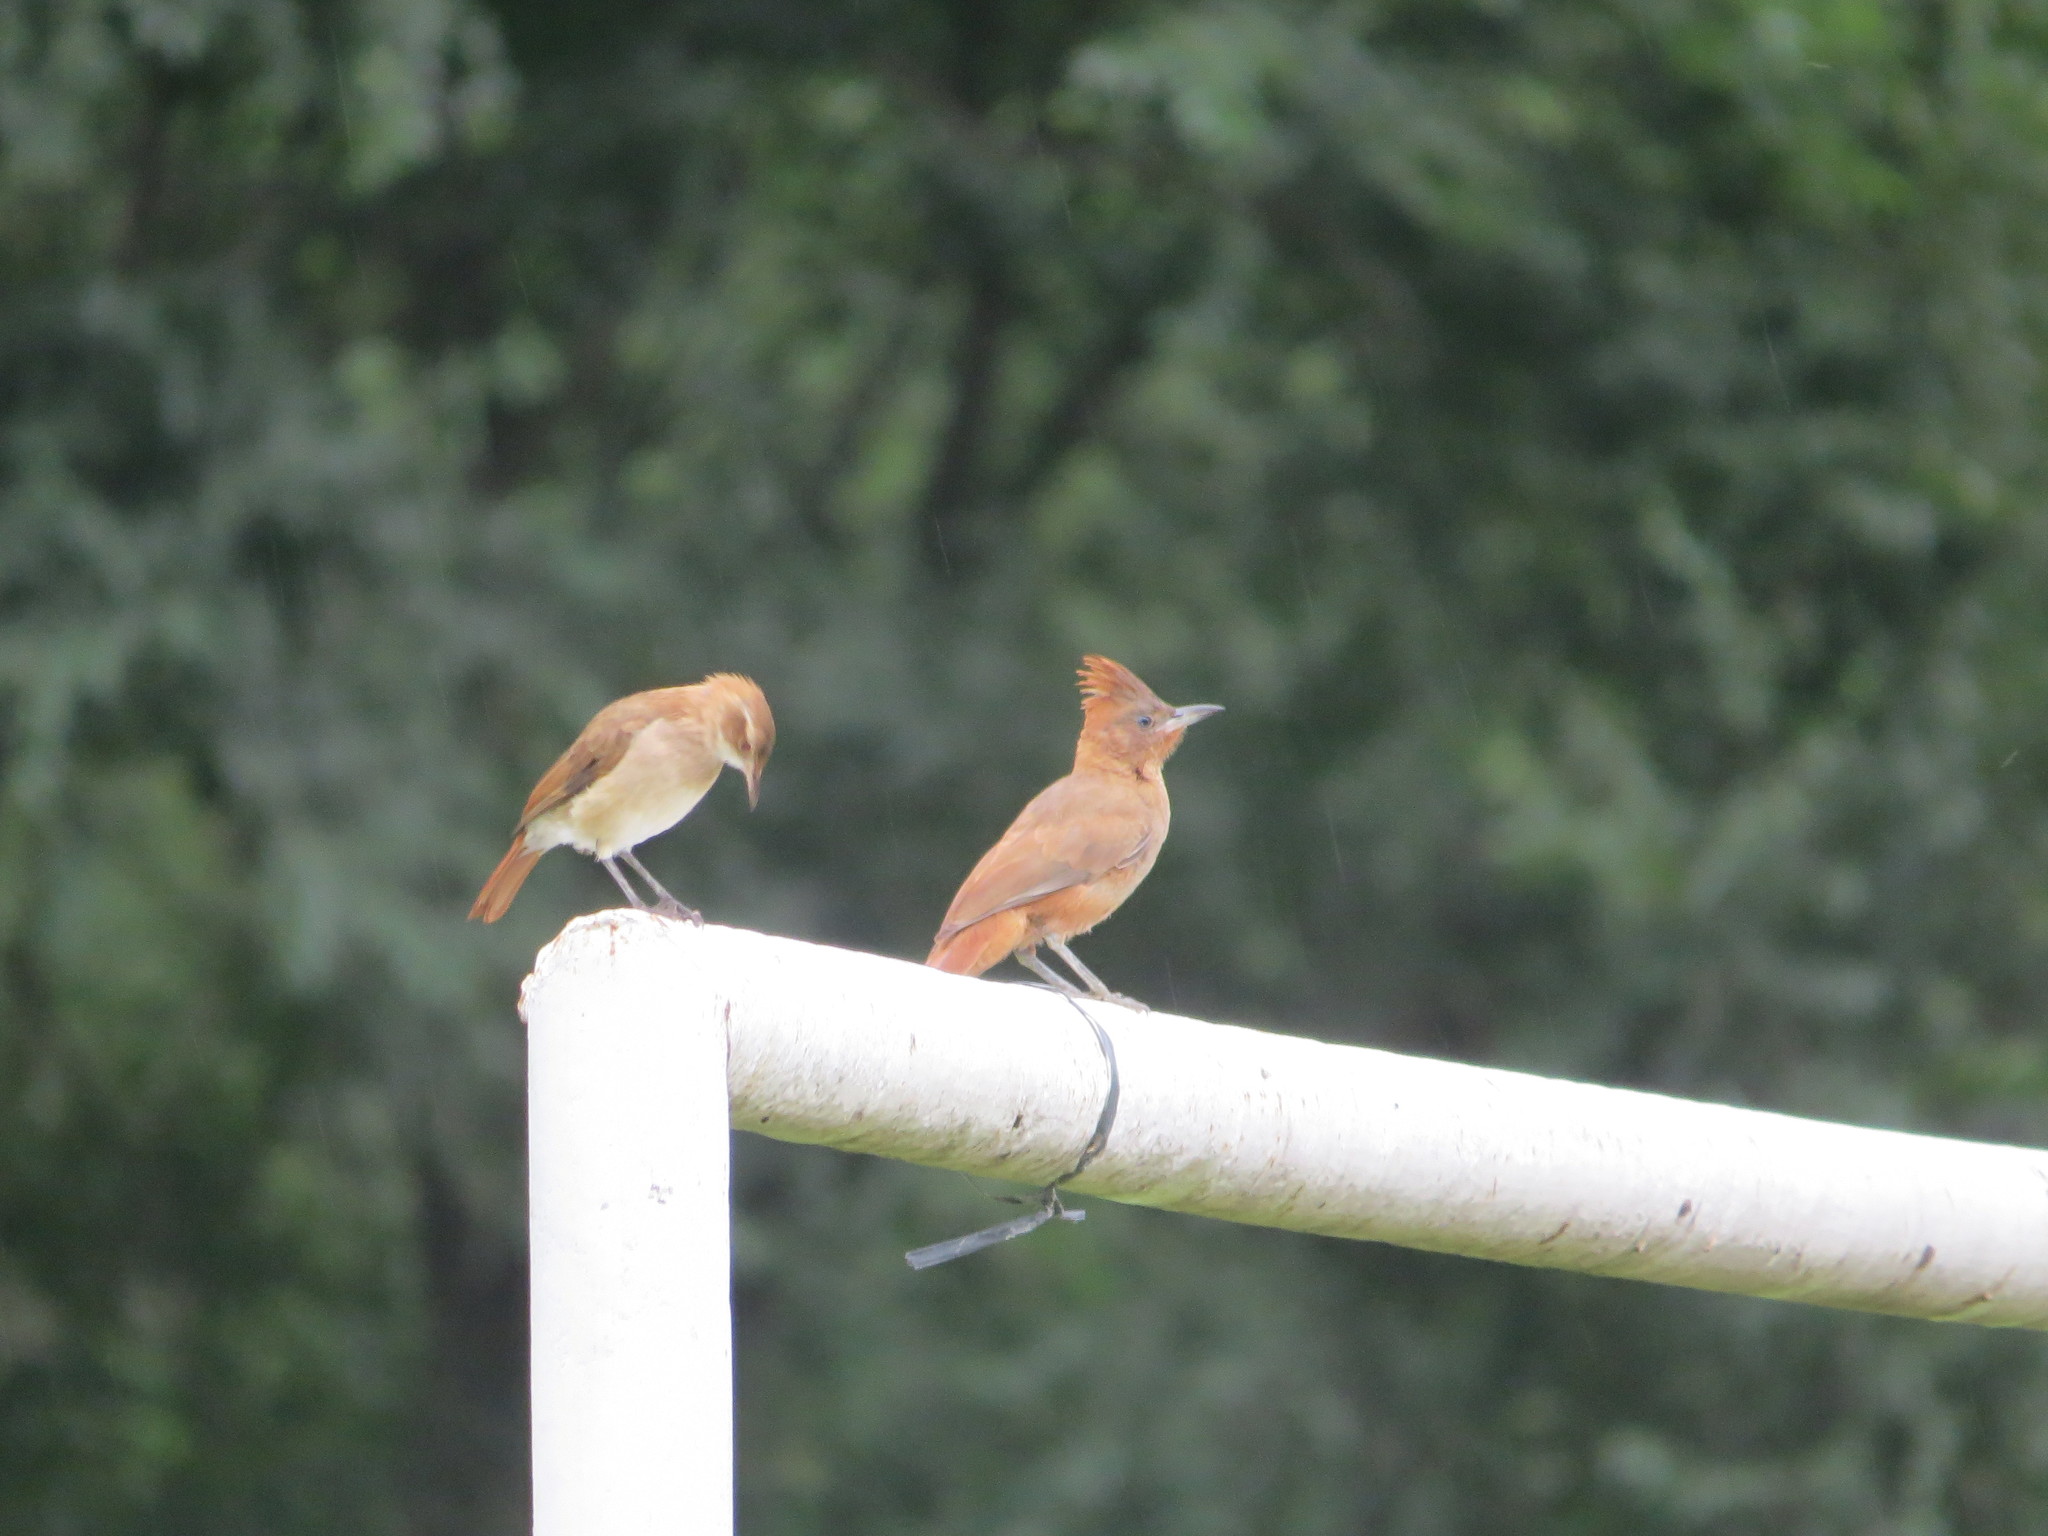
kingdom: Animalia
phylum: Chordata
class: Aves
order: Passeriformes
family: Furnariidae
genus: Pseudoseisura
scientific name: Pseudoseisura lophotes
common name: Brown cacholote
